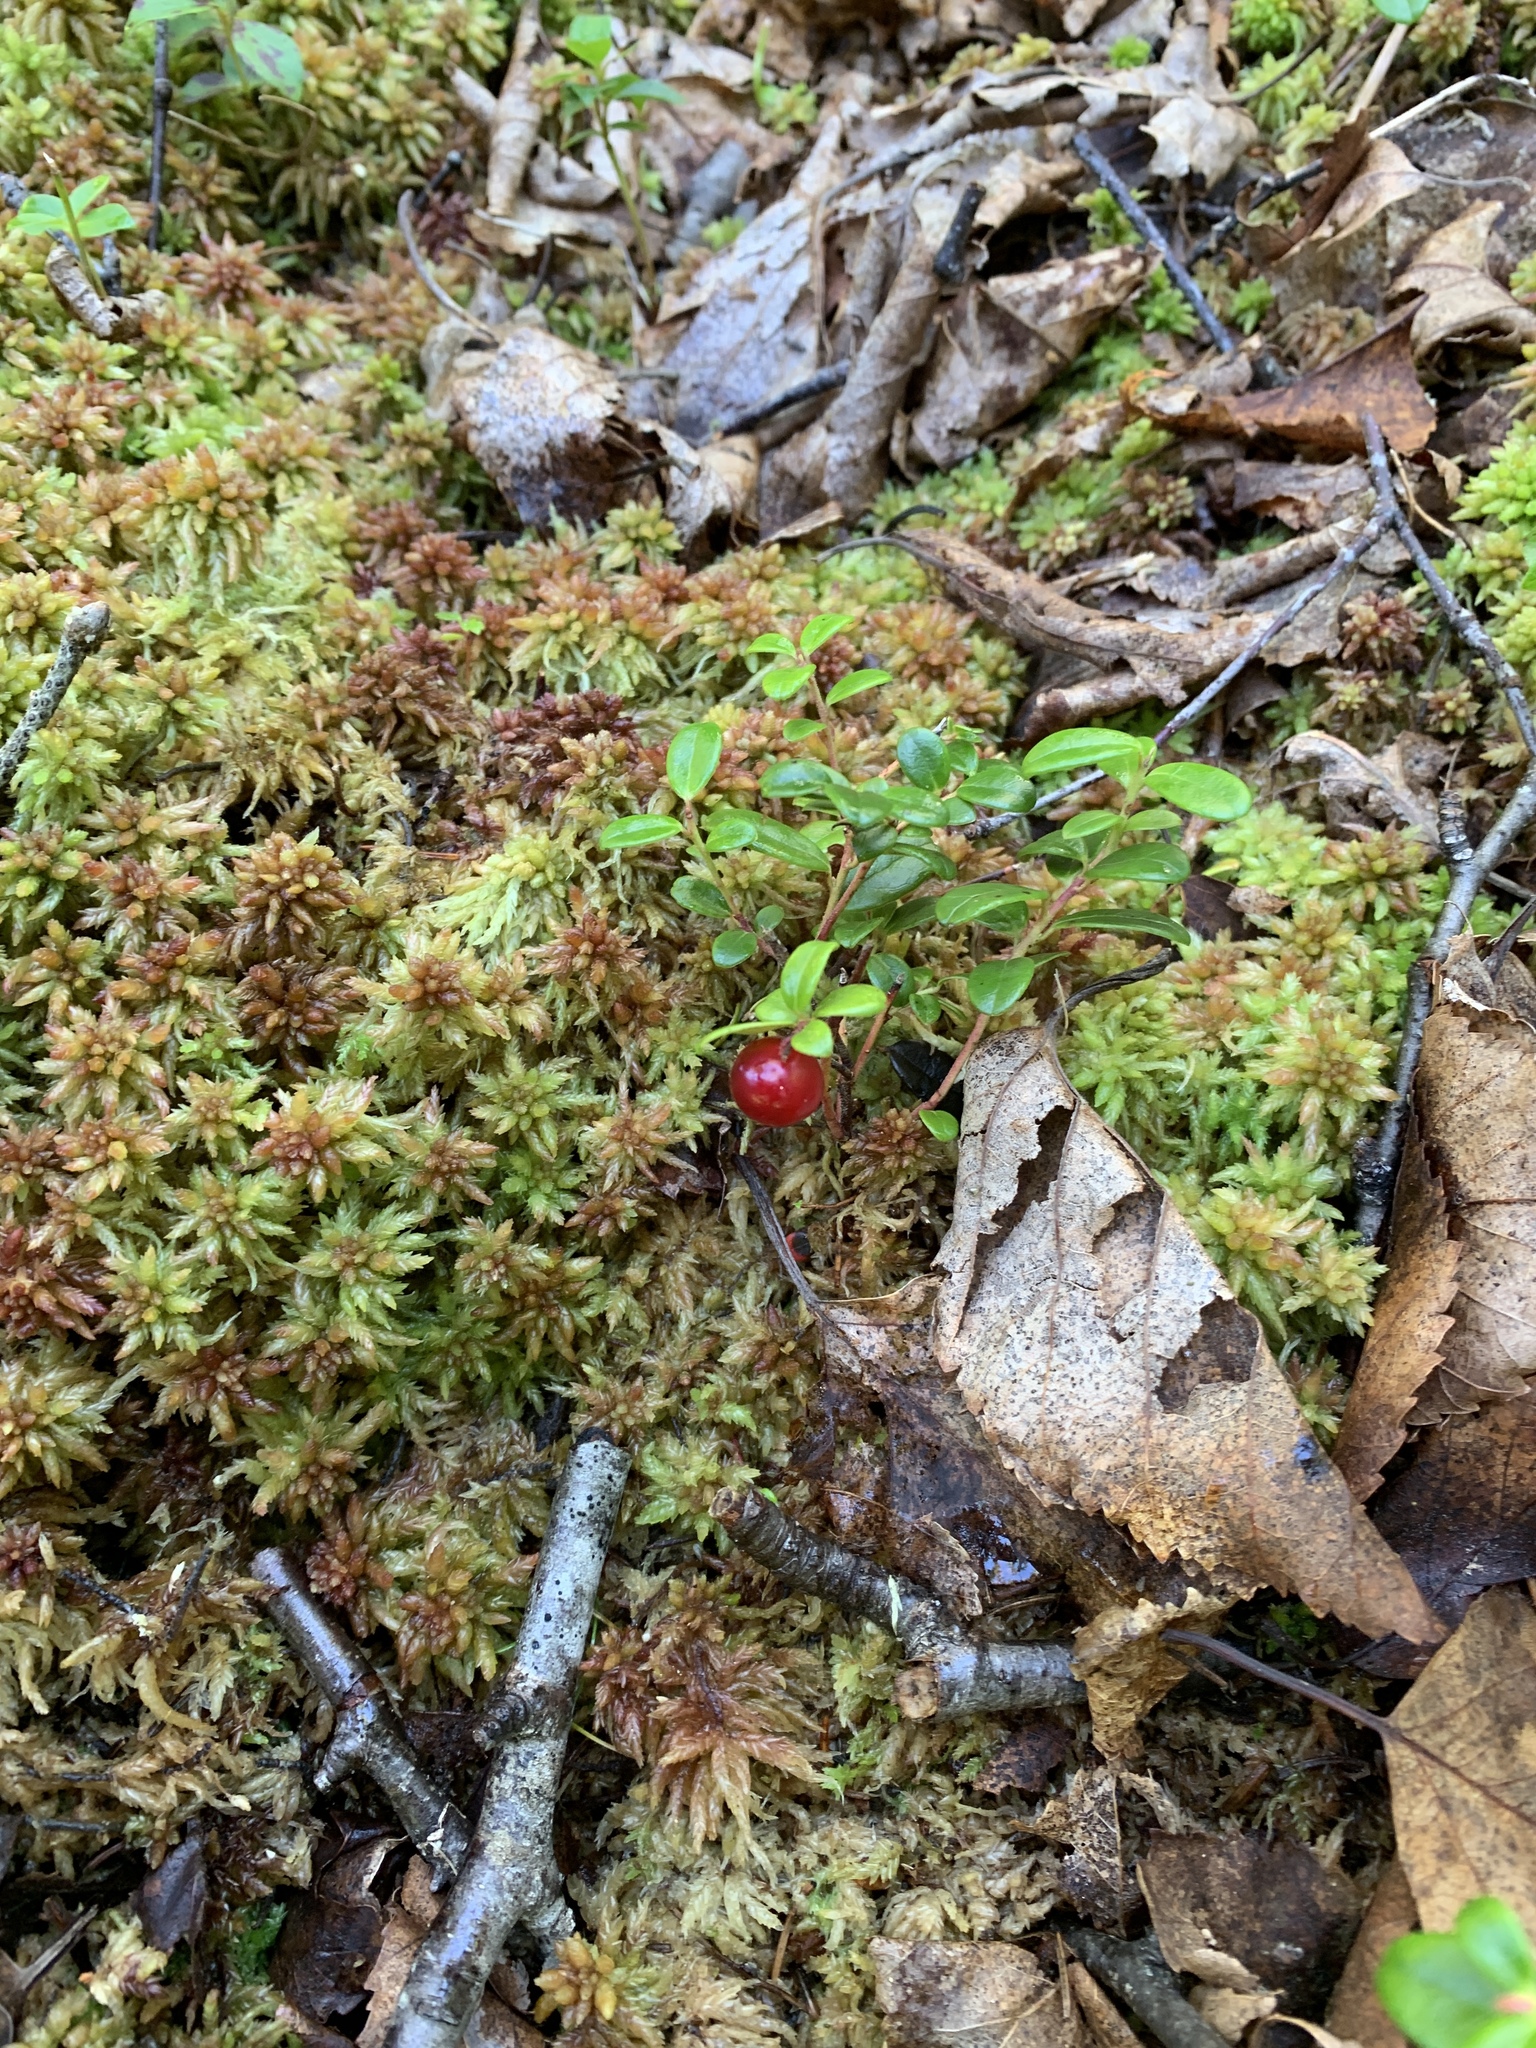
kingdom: Plantae
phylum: Tracheophyta
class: Magnoliopsida
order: Ericales
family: Ericaceae
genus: Vaccinium
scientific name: Vaccinium vitis-idaea
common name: Cowberry
